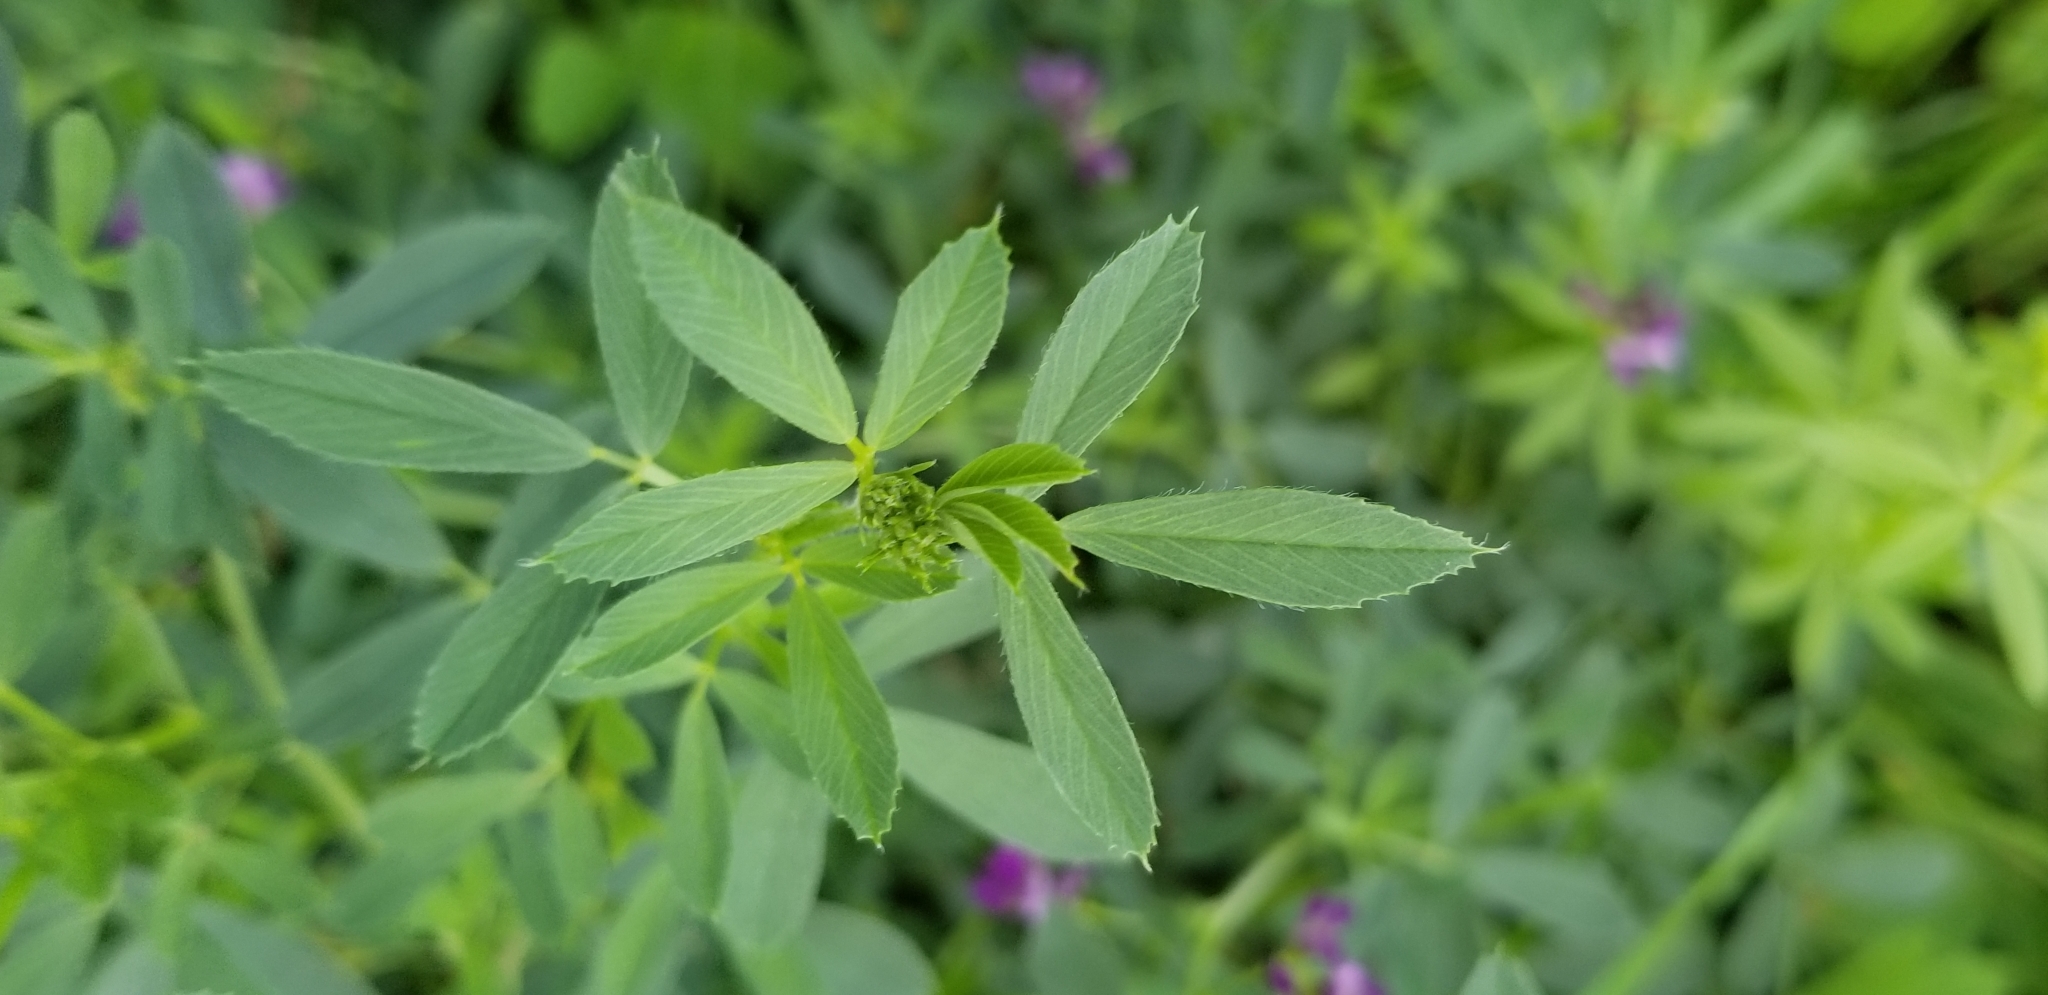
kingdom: Plantae
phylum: Tracheophyta
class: Magnoliopsida
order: Fabales
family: Fabaceae
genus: Medicago
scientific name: Medicago sativa
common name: Alfalfa
